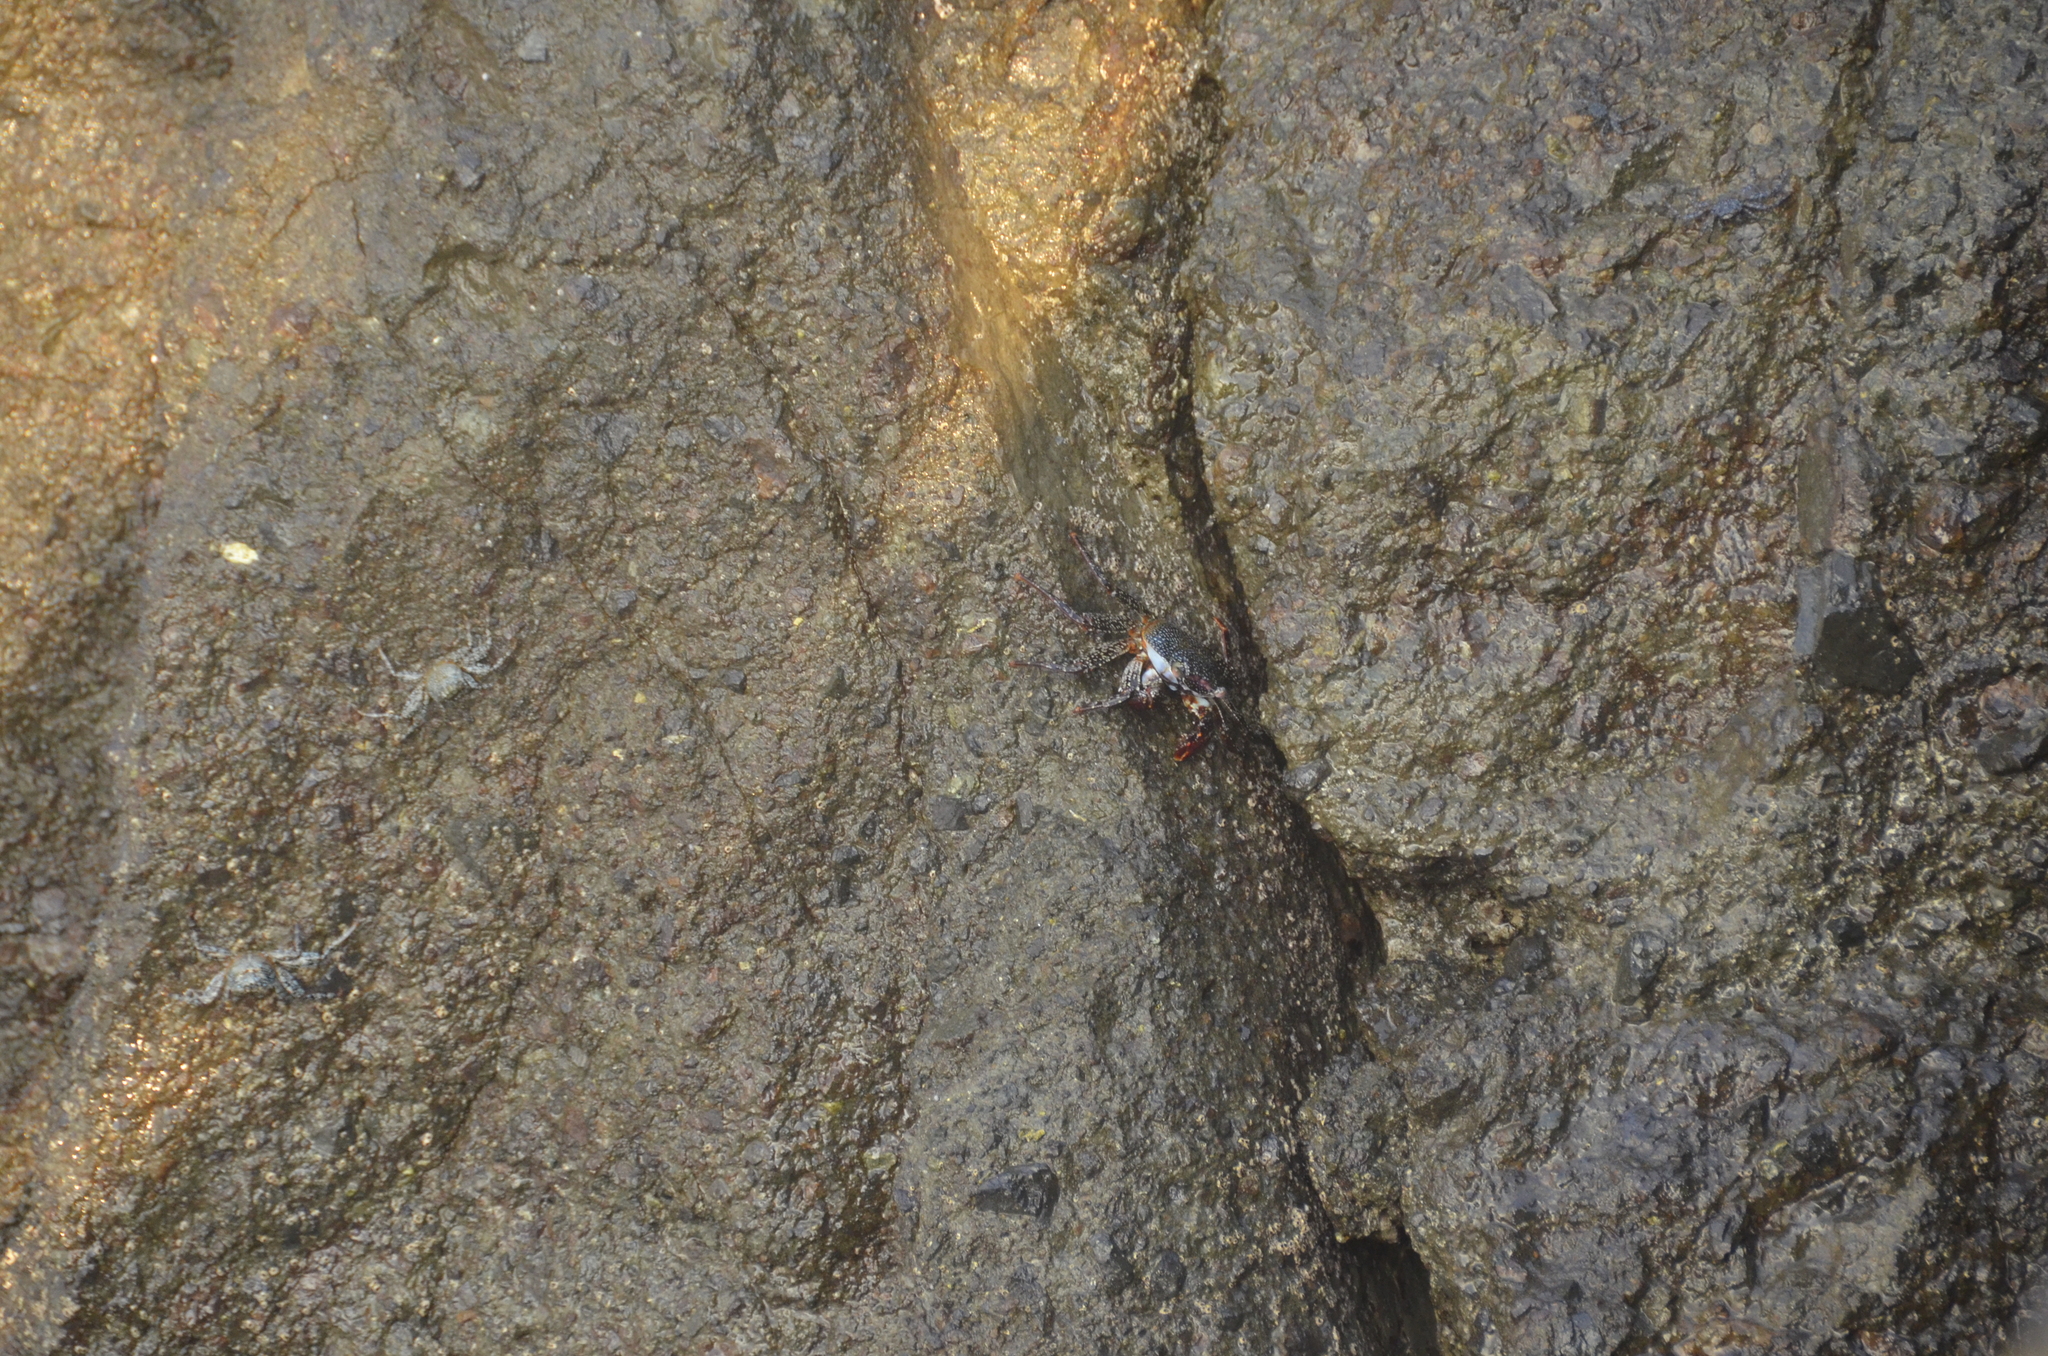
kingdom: Animalia
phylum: Arthropoda
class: Malacostraca
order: Decapoda
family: Grapsidae
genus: Grapsus
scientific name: Grapsus grapsus
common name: Sally lightfoot
